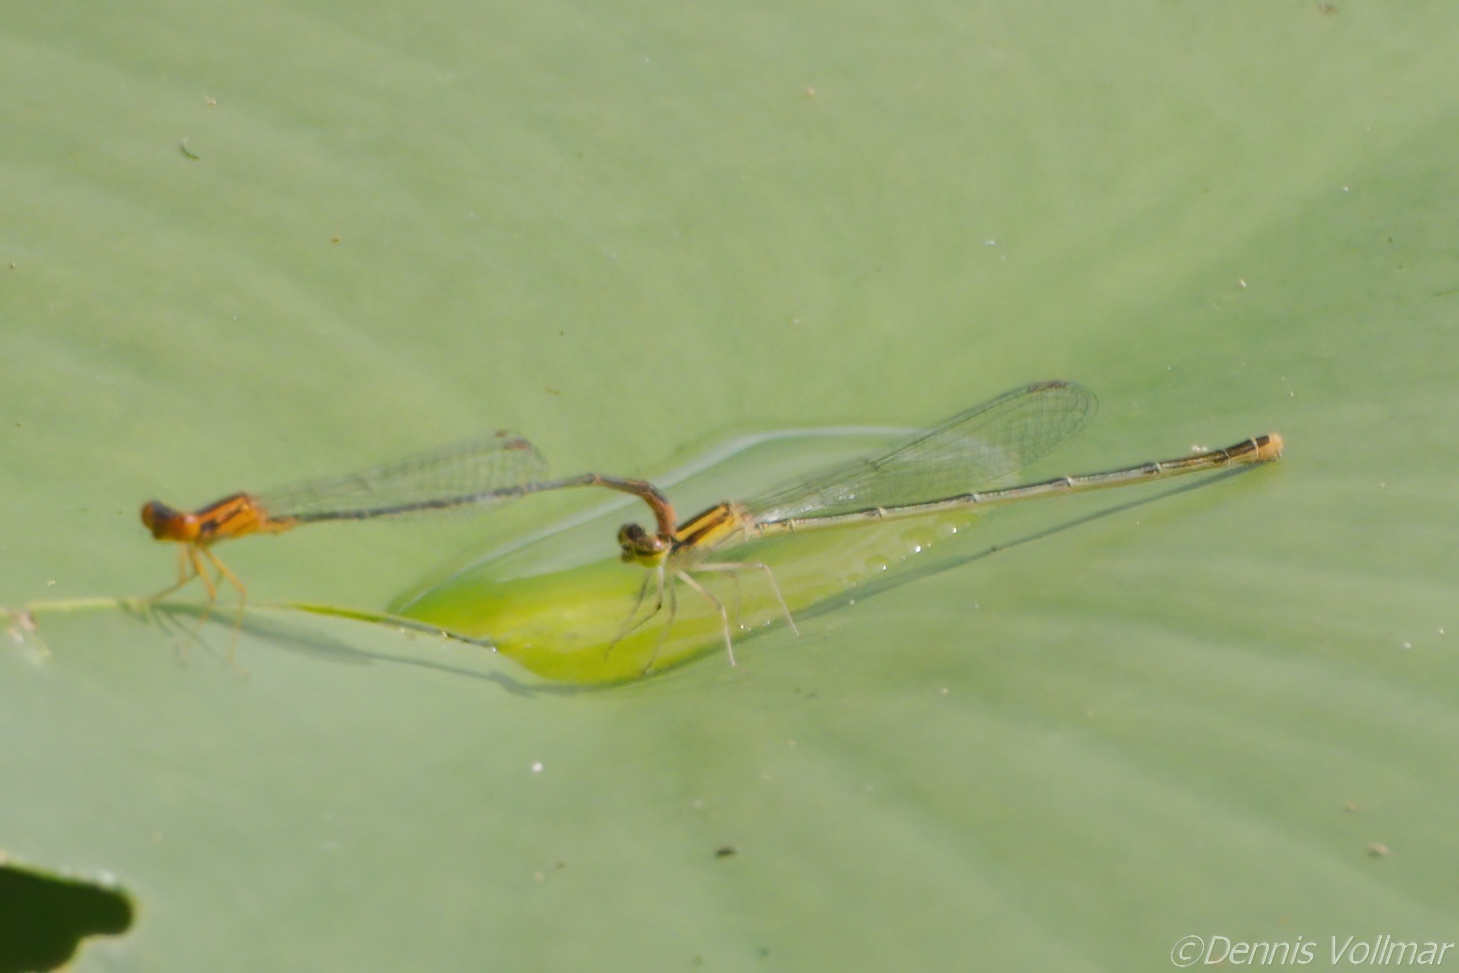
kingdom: Animalia
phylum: Arthropoda
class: Insecta
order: Odonata
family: Coenagrionidae
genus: Enallagma
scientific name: Enallagma pollutum
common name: Florida bluet
